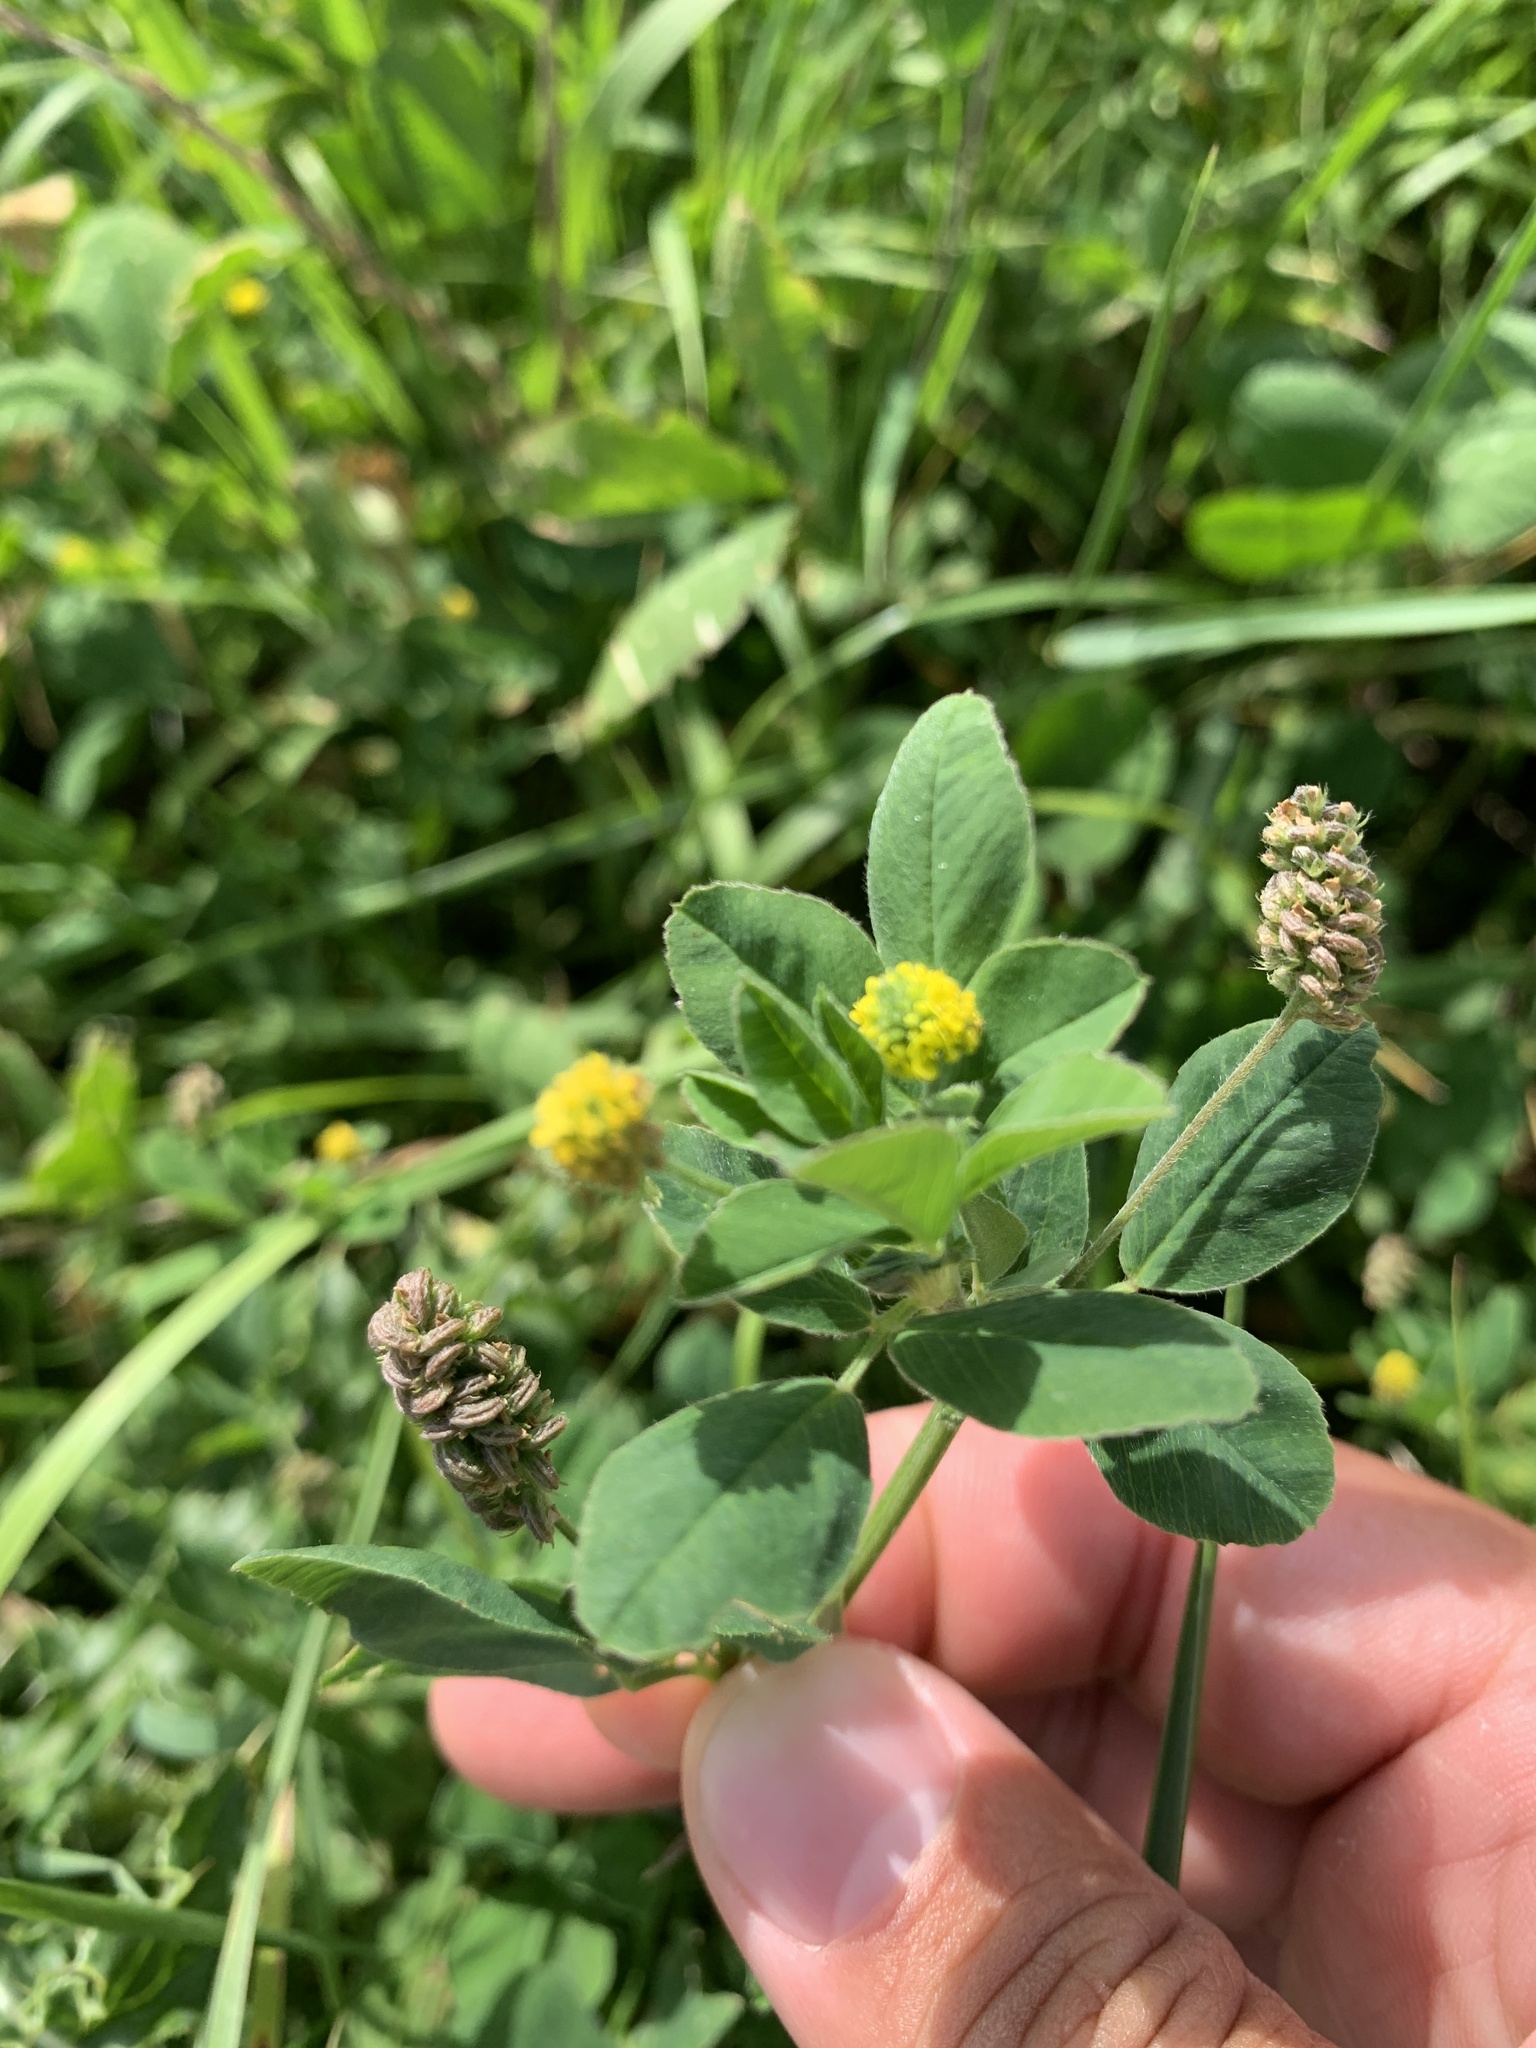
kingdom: Plantae
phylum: Tracheophyta
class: Magnoliopsida
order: Fabales
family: Fabaceae
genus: Medicago
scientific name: Medicago lupulina
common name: Black medick
